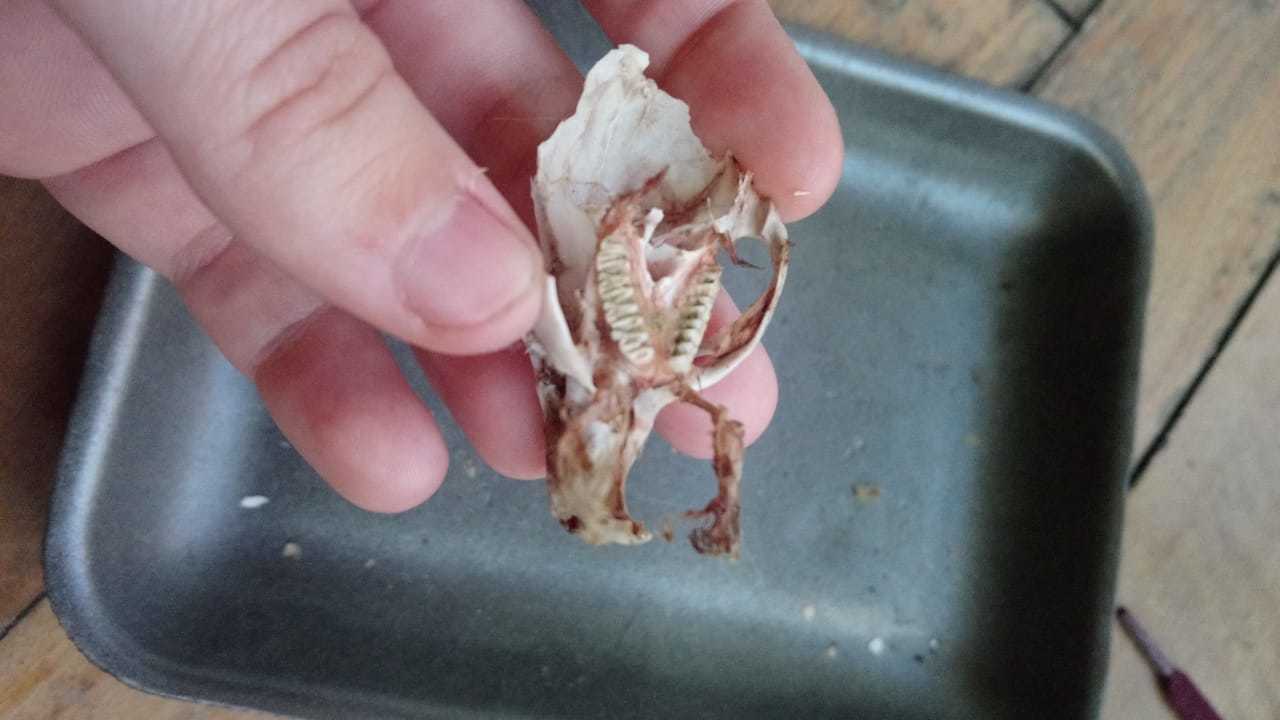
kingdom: Animalia
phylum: Chordata
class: Mammalia
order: Rodentia
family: Caviidae
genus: Cavia
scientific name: Cavia aperea
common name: Brazilian guinea pig
